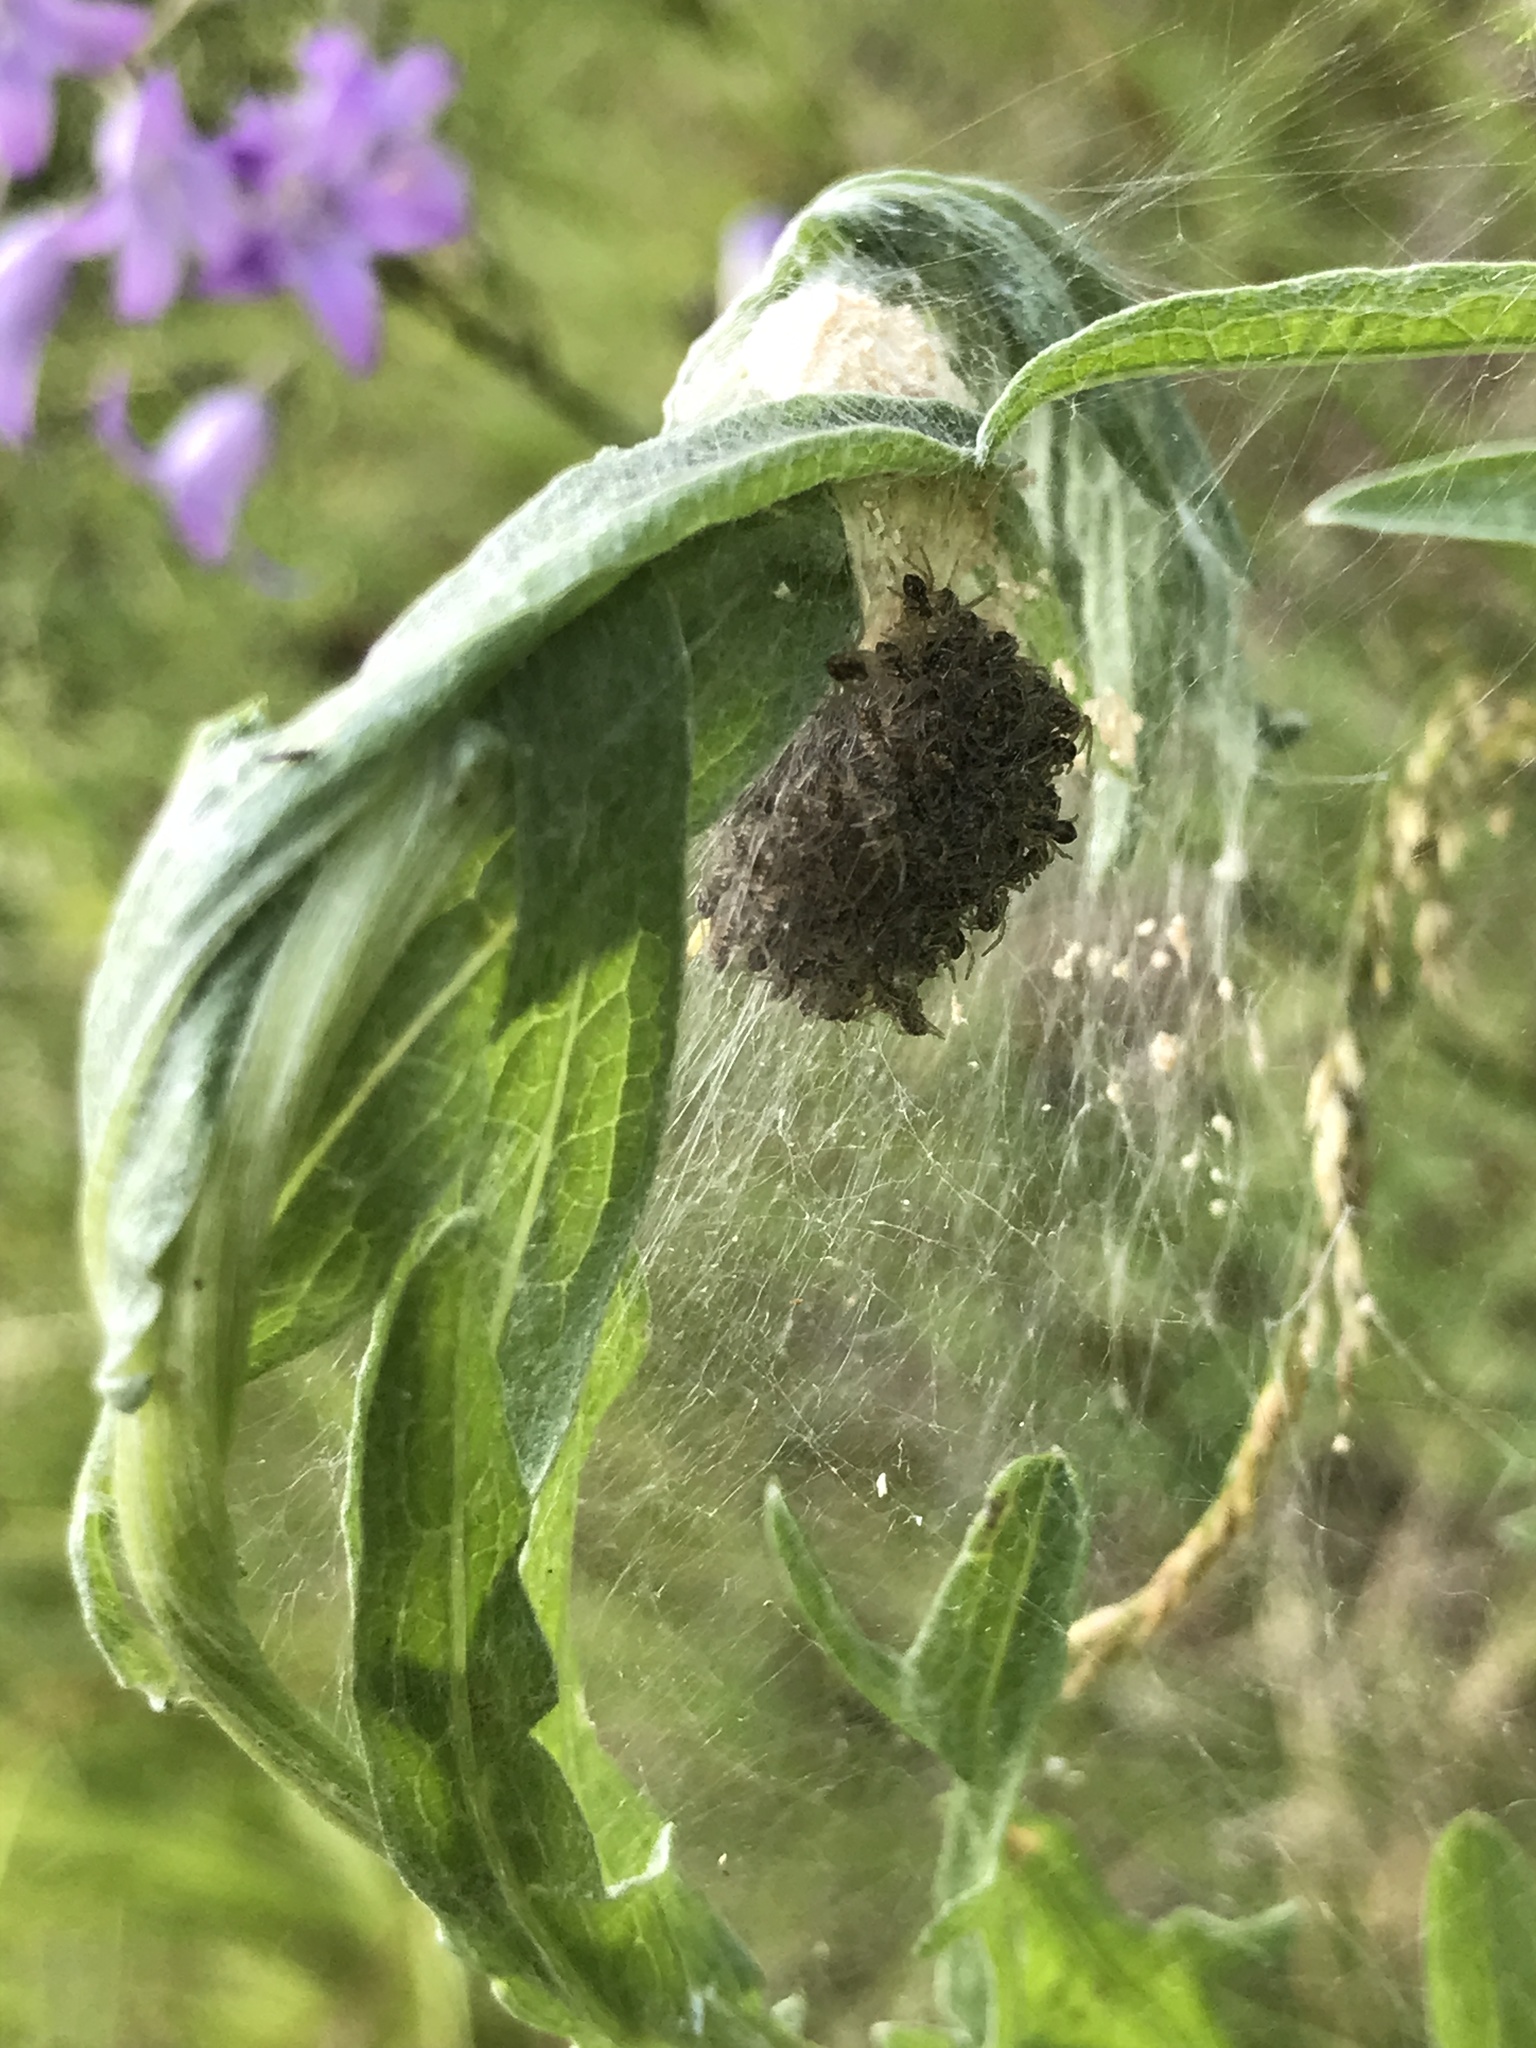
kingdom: Animalia
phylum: Arthropoda
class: Arachnida
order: Araneae
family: Pisauridae
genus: Pisaura
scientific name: Pisaura mirabilis
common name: Tent spider
